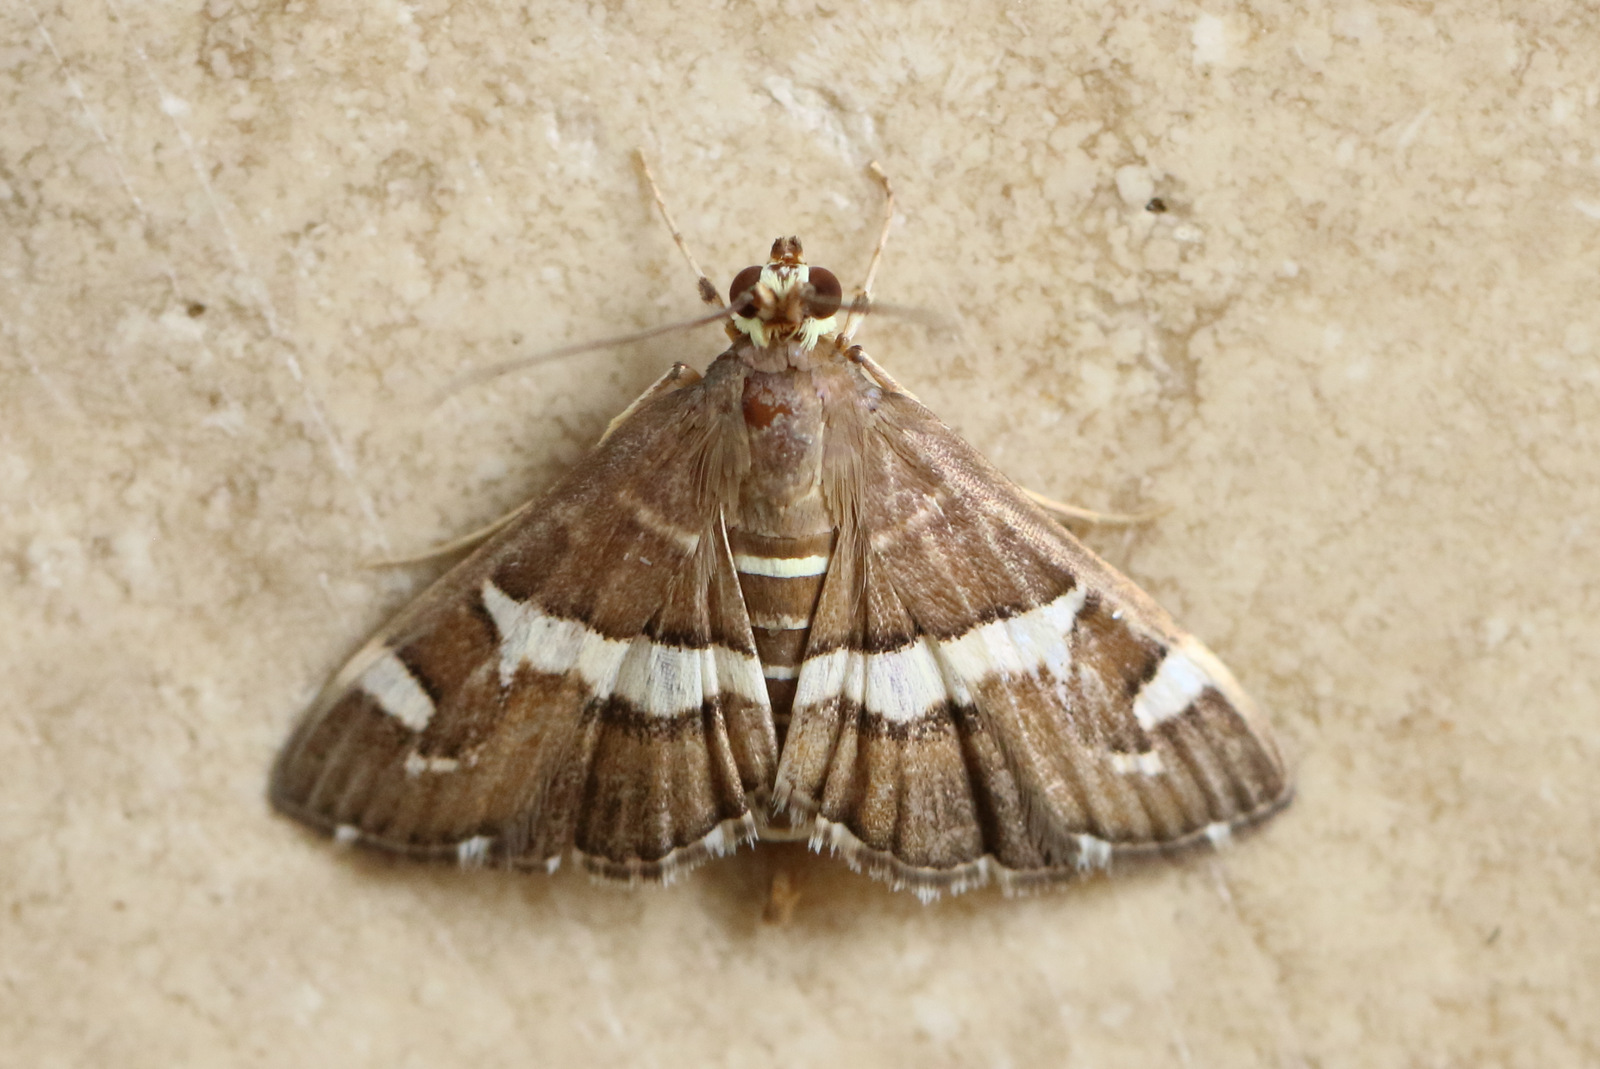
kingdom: Animalia
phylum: Arthropoda
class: Insecta
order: Lepidoptera
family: Crambidae
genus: Spoladea
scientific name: Spoladea recurvalis
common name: Beet webworm moth
